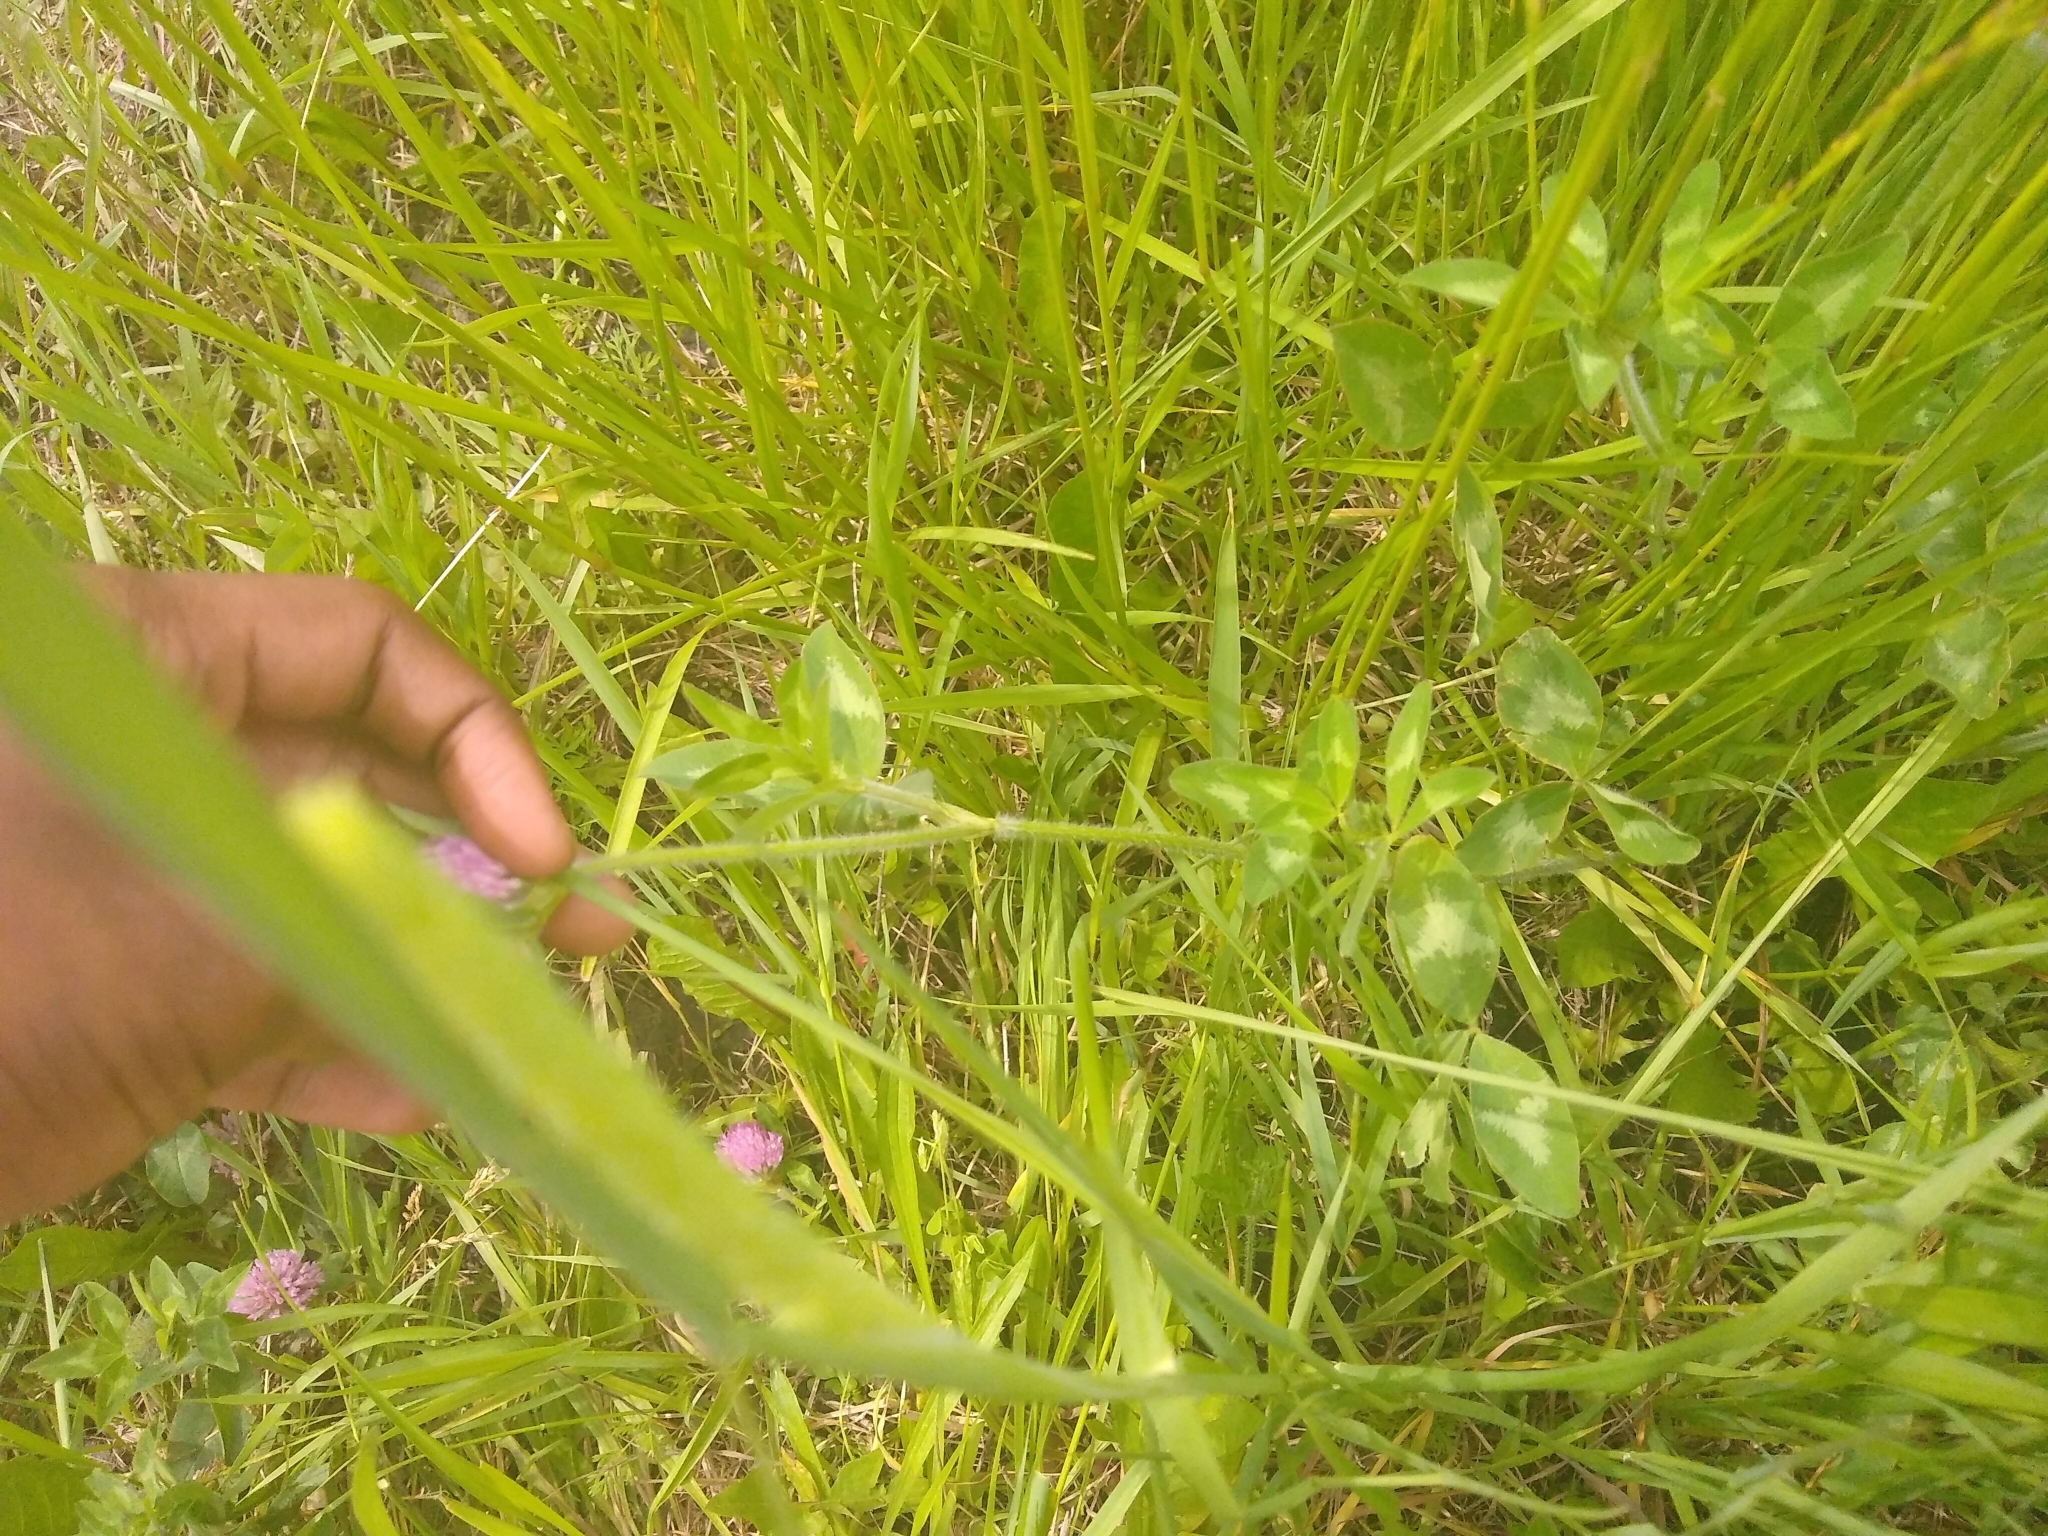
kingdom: Plantae
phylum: Tracheophyta
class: Magnoliopsida
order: Fabales
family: Fabaceae
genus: Trifolium
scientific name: Trifolium pratense
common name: Red clover
